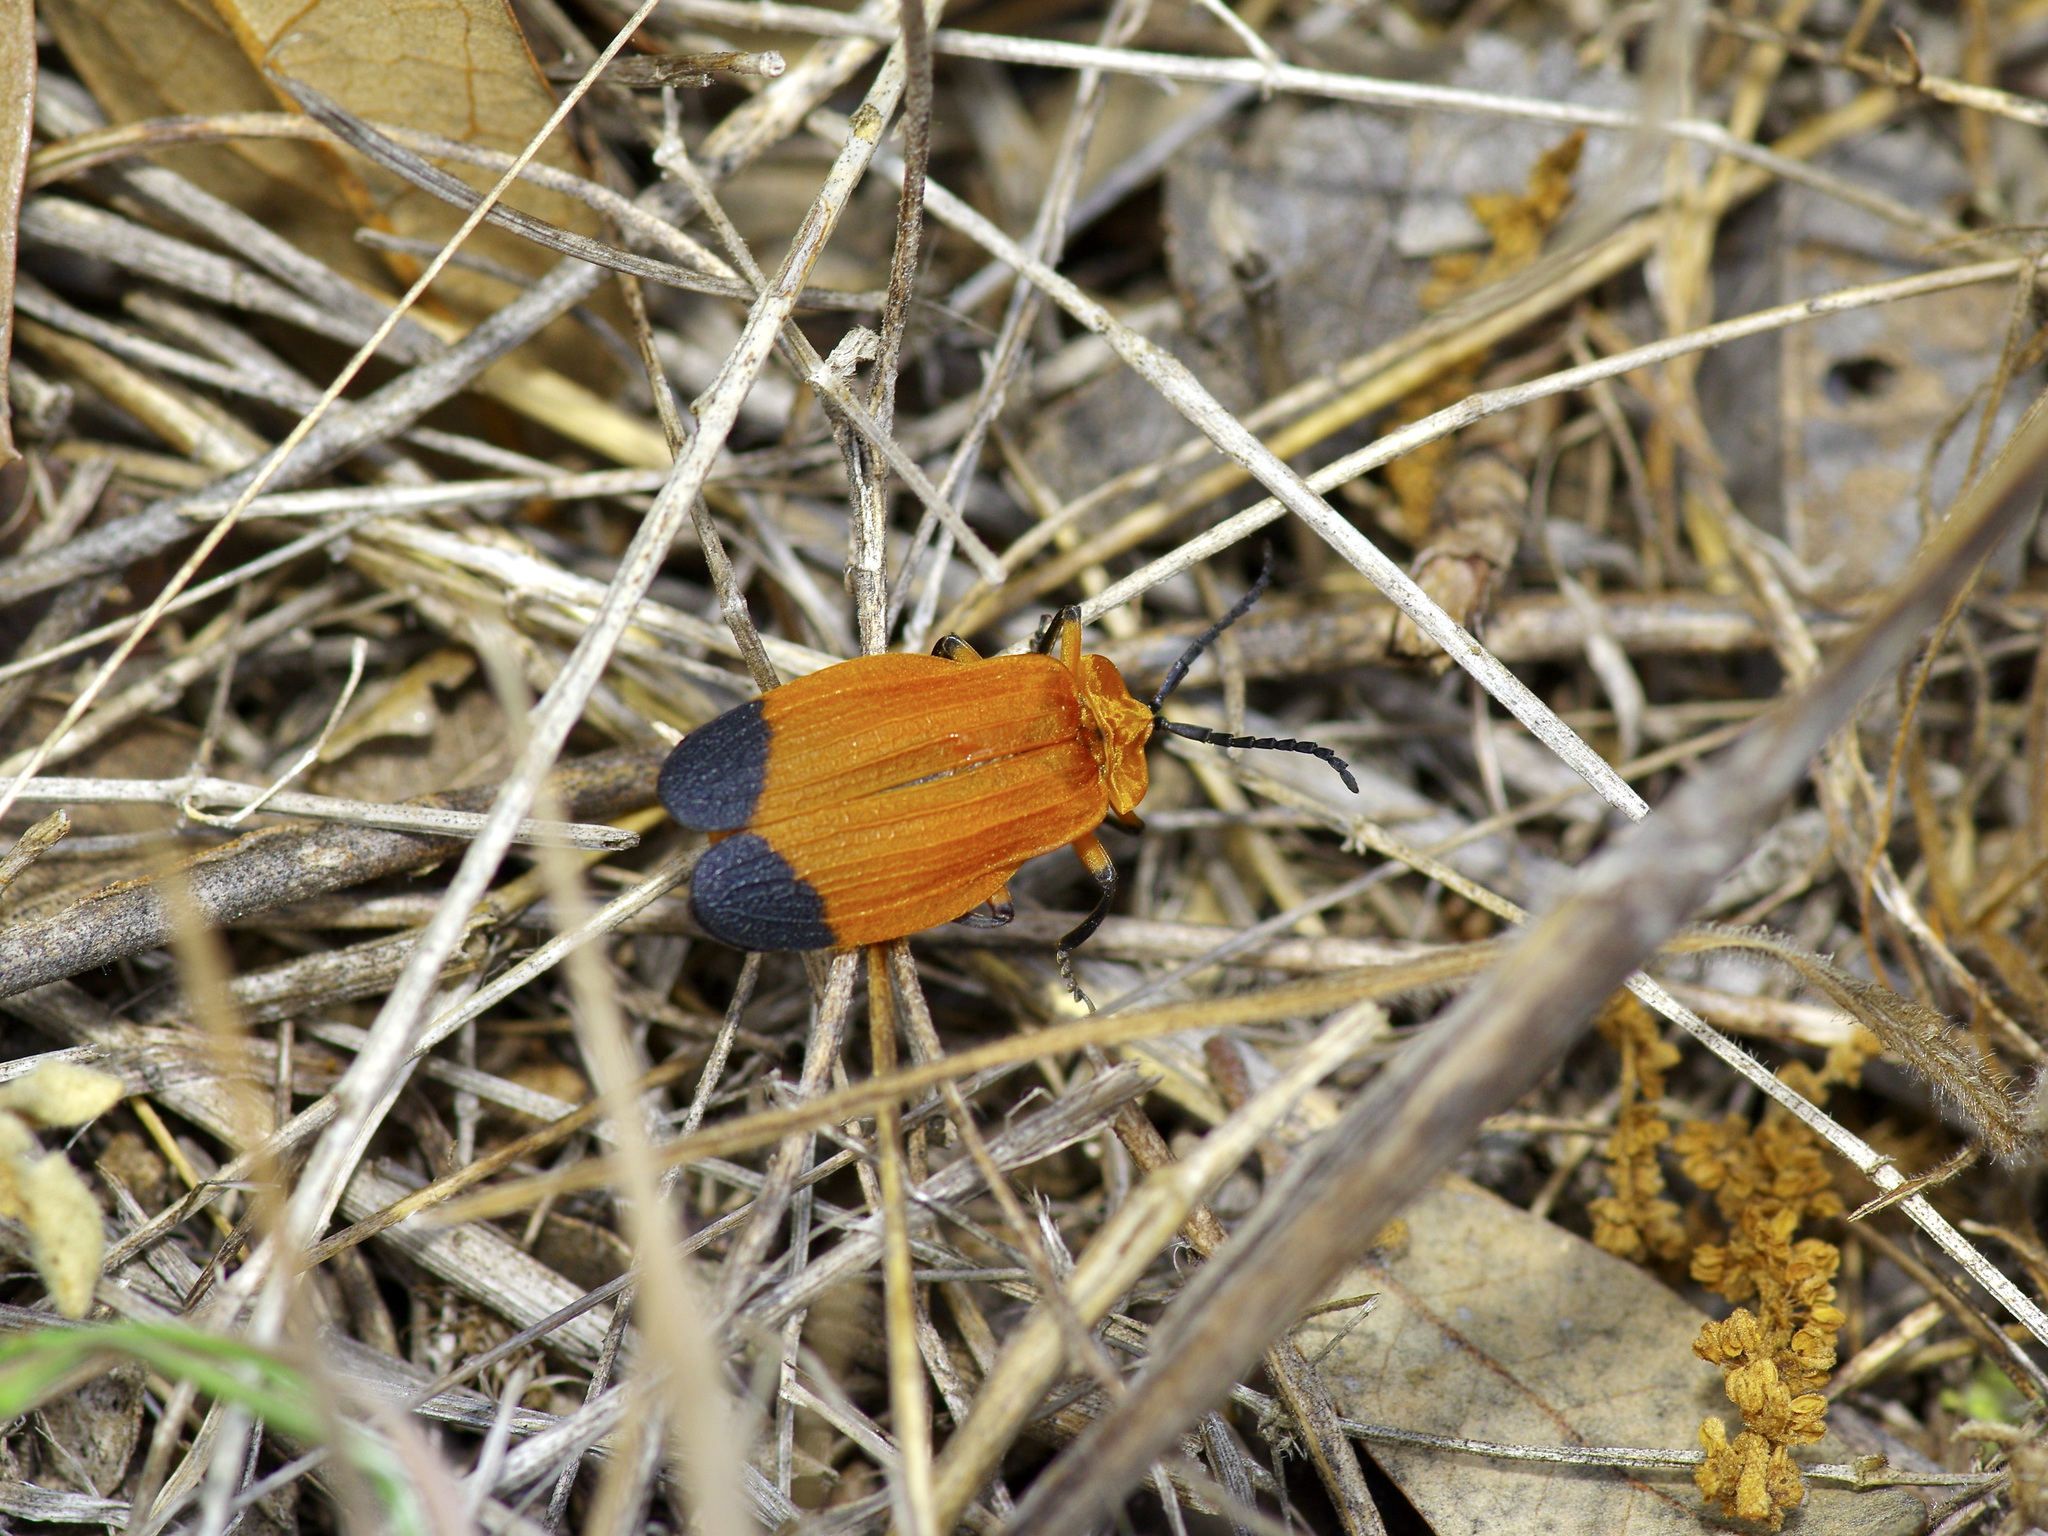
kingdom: Animalia
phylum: Arthropoda
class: Insecta
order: Coleoptera
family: Lycidae
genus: Lycus
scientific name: Lycus arizonensis
